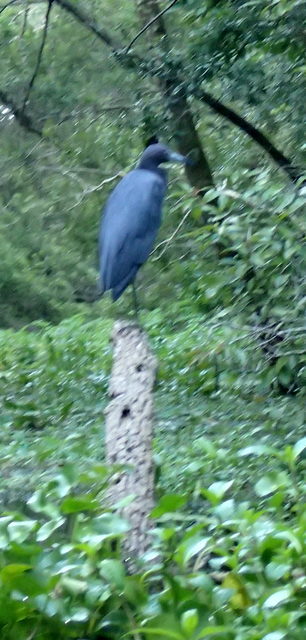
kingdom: Animalia
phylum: Chordata
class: Aves
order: Pelecaniformes
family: Ardeidae
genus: Egretta
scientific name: Egretta caerulea
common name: Little blue heron
